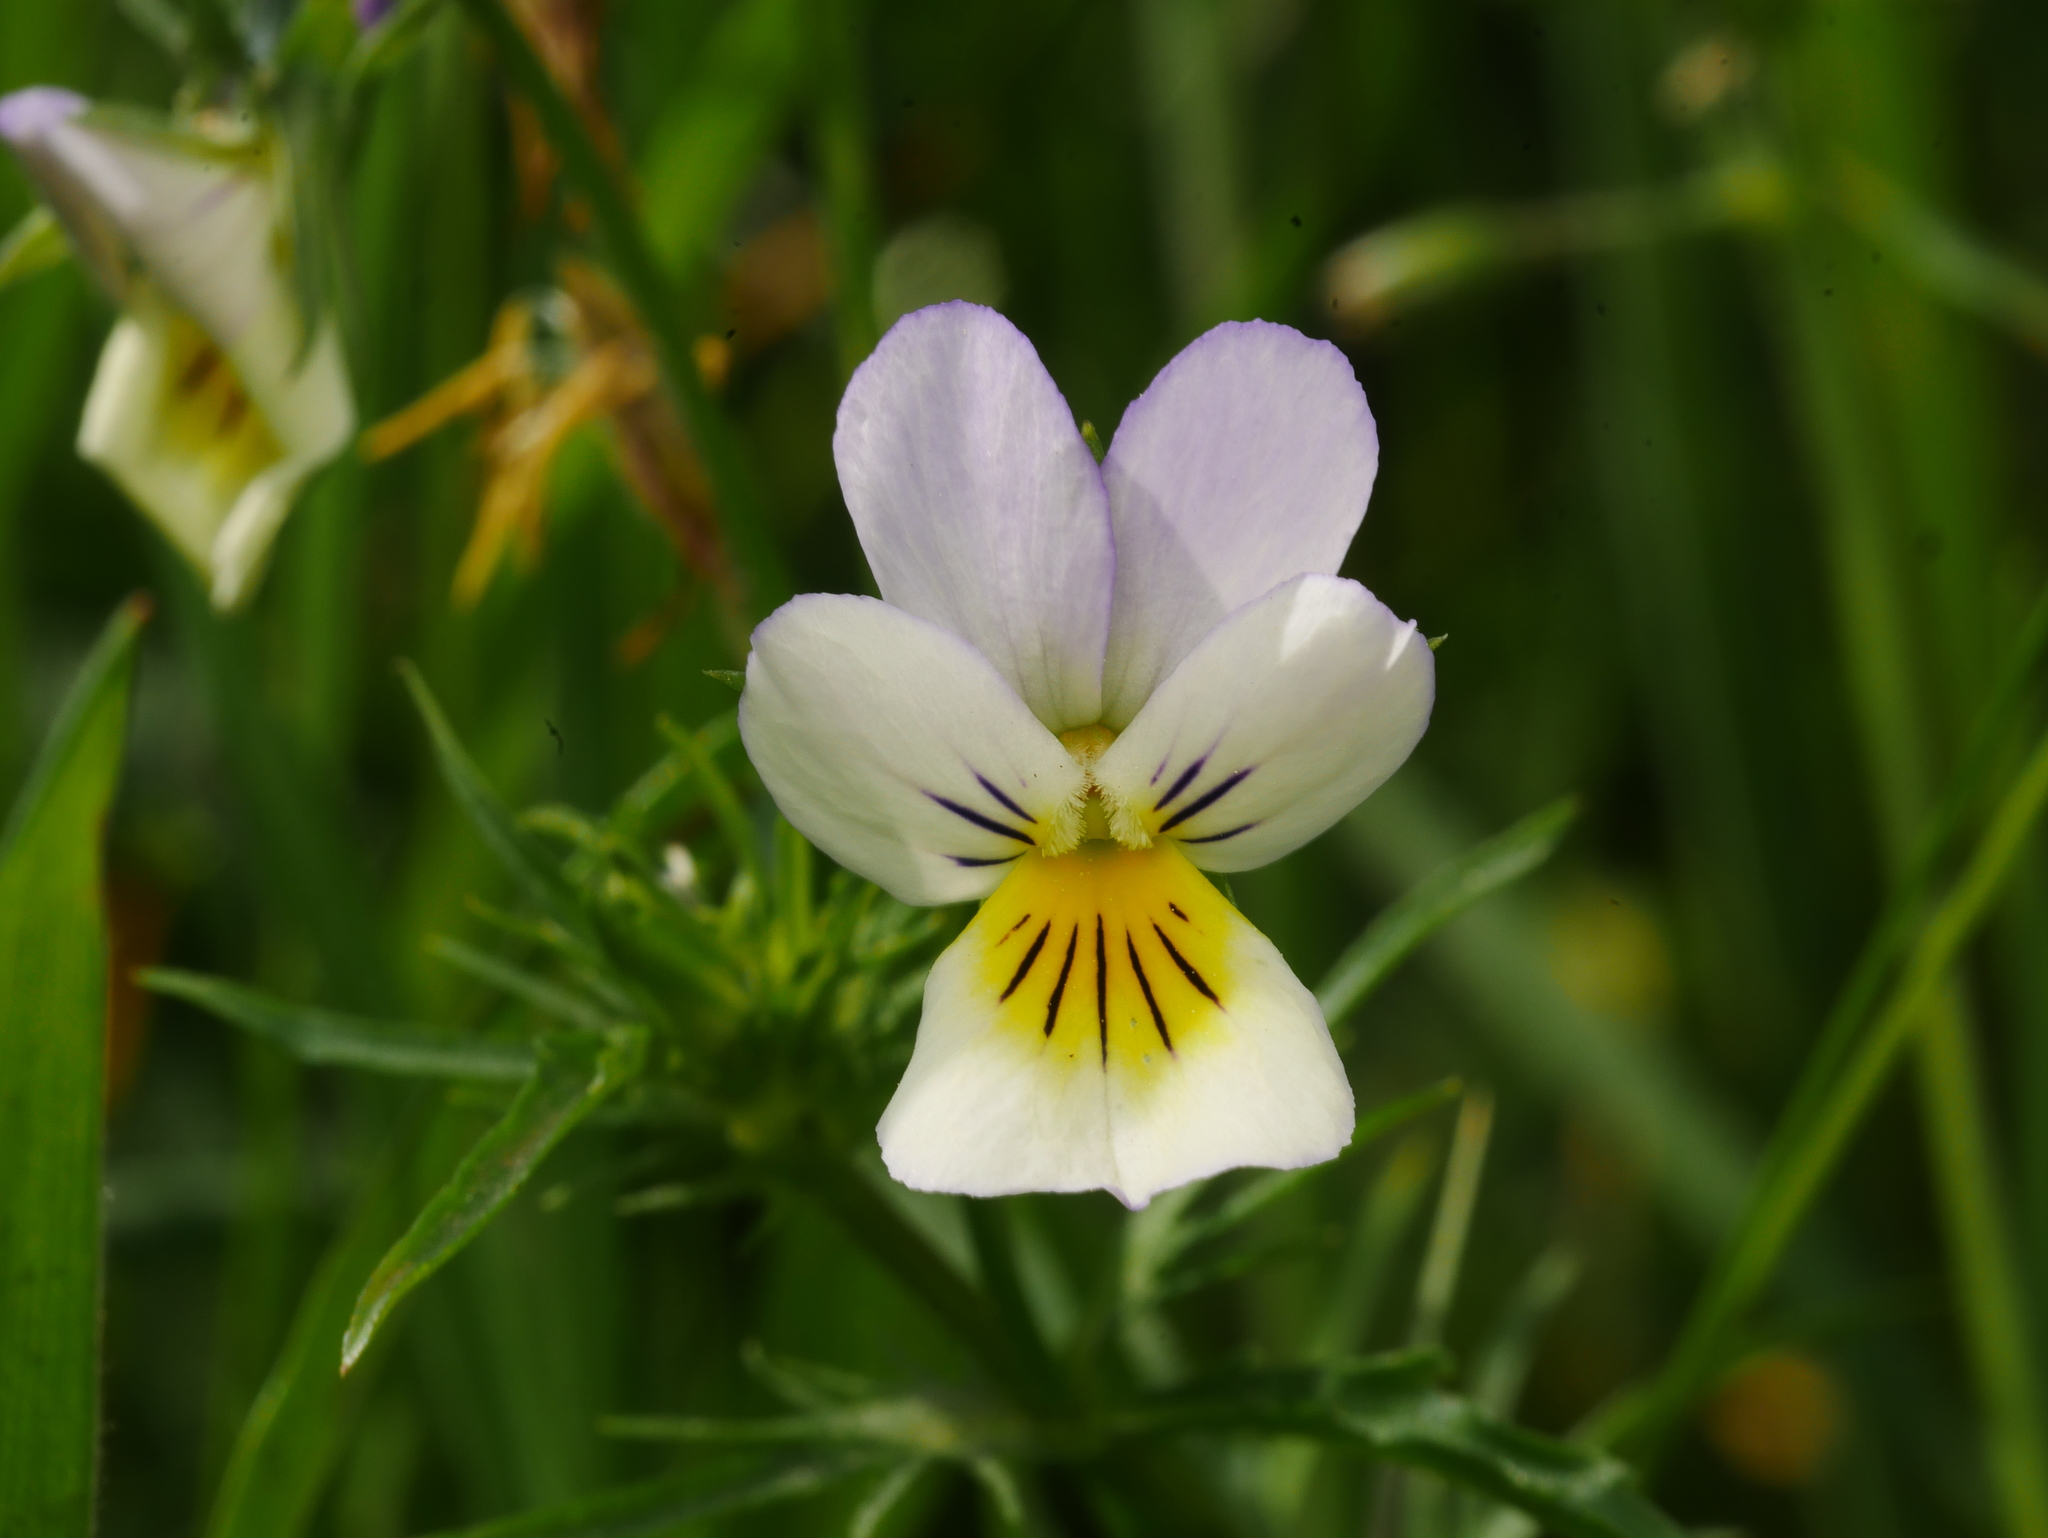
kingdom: Plantae
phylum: Tracheophyta
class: Magnoliopsida
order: Malpighiales
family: Violaceae
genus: Viola
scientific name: Viola arvensis
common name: Field pansy
